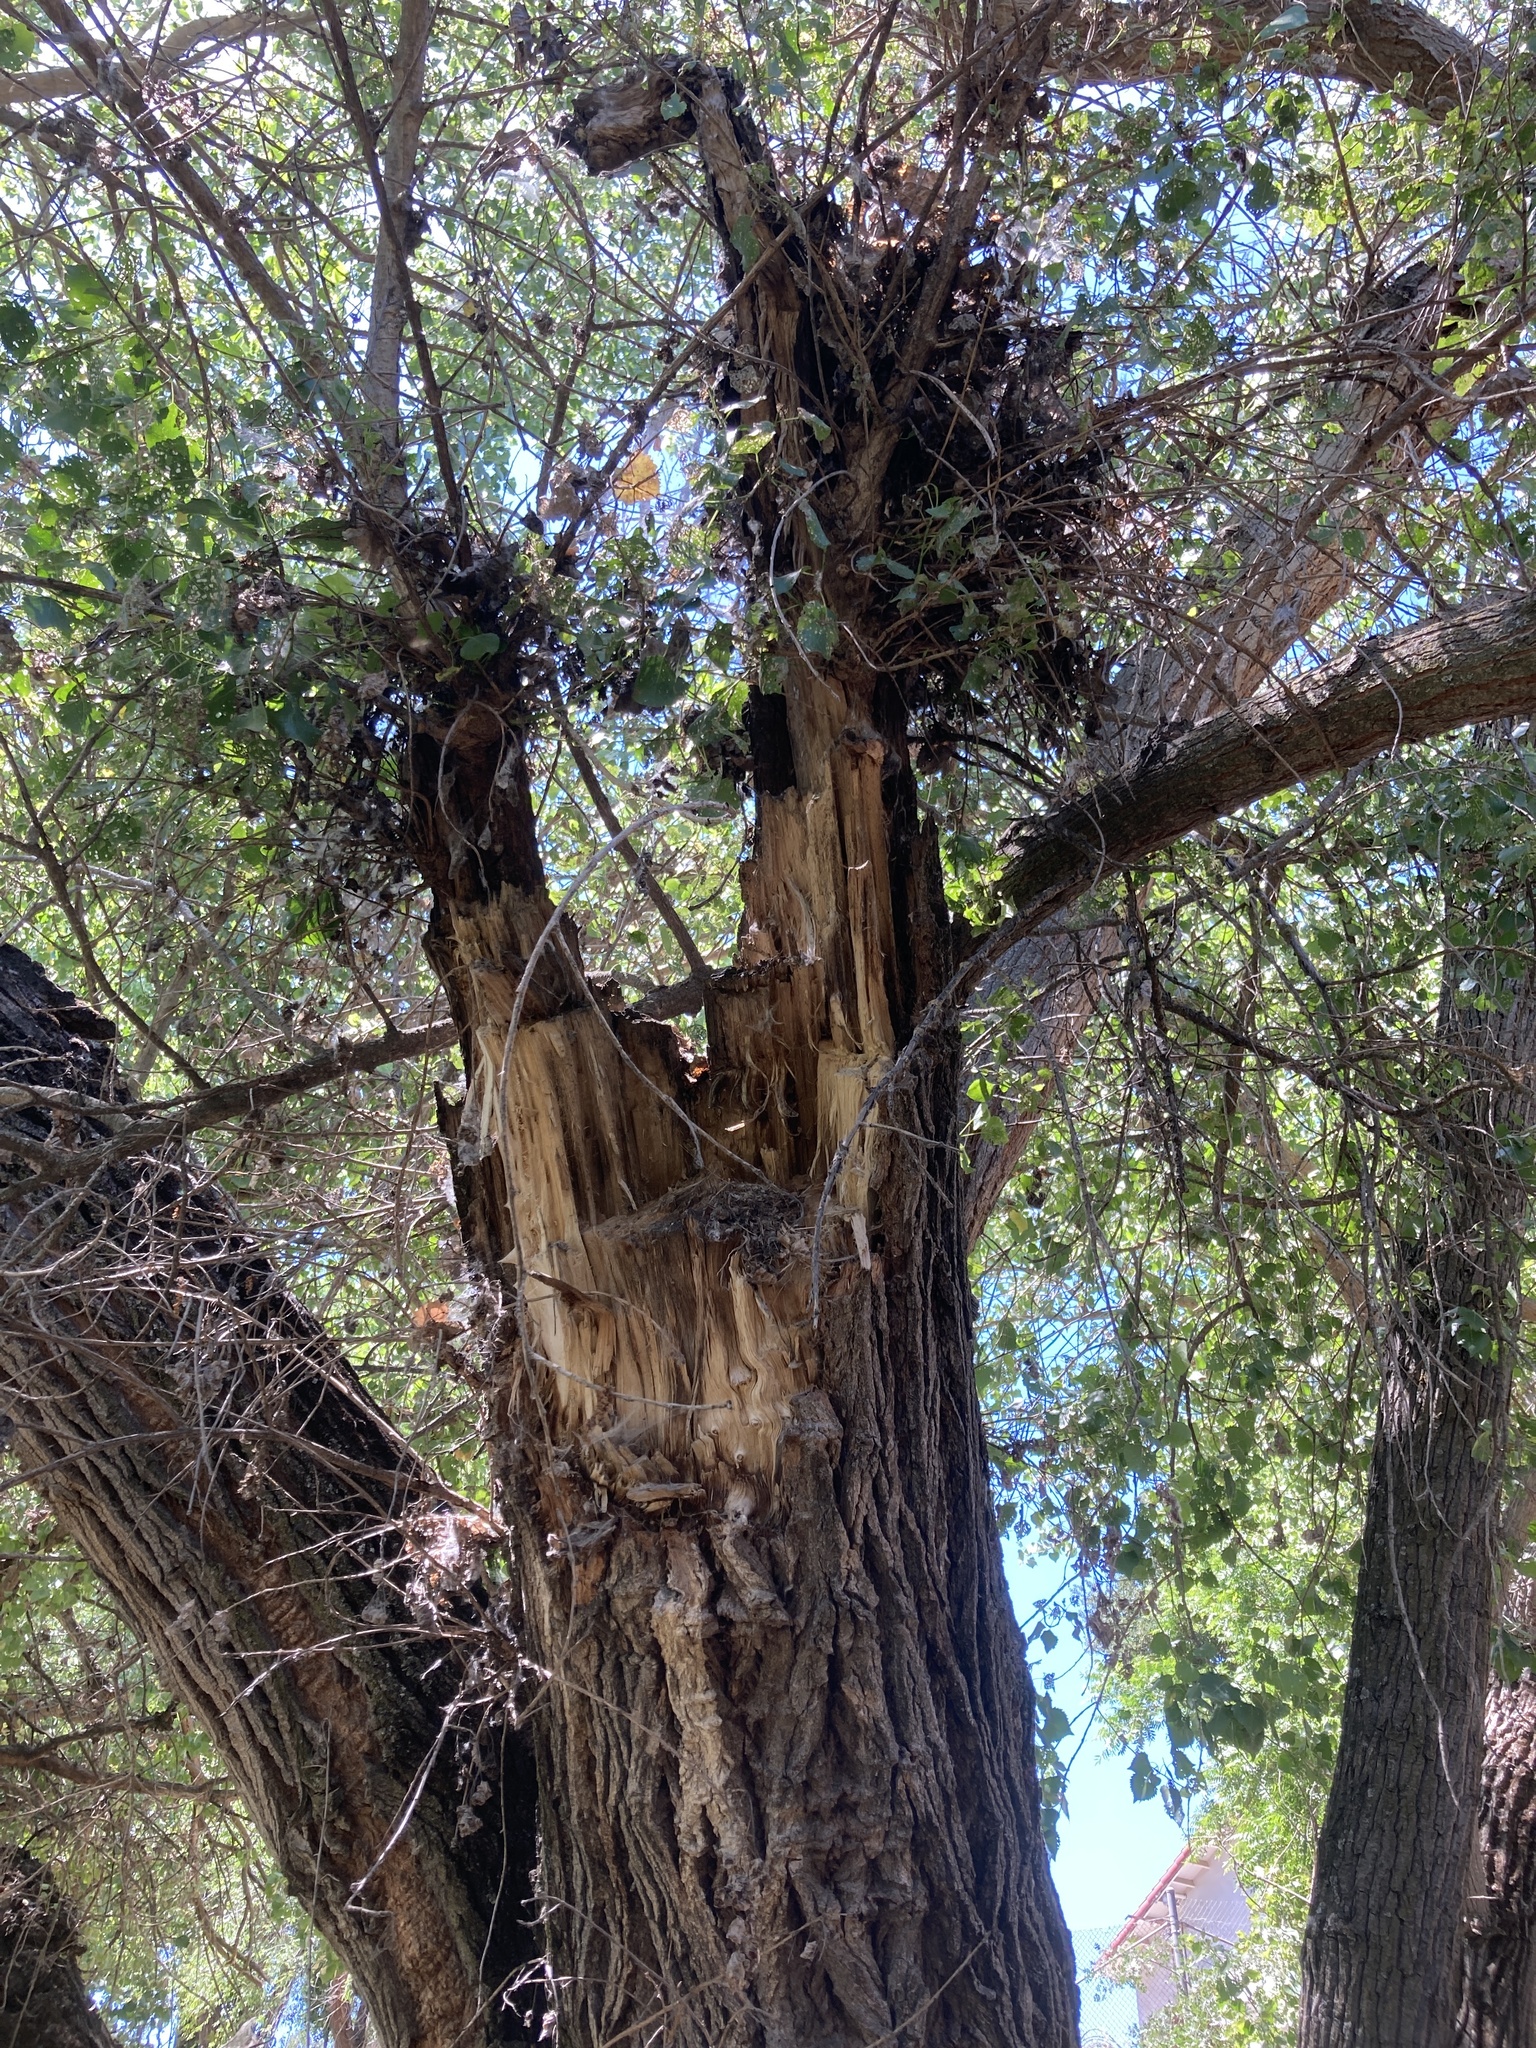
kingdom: Animalia
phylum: Chordata
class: Aves
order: Passeriformes
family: Tyrannidae
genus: Empidonax
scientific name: Empidonax difficilis
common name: Pacific-slope flycatcher
